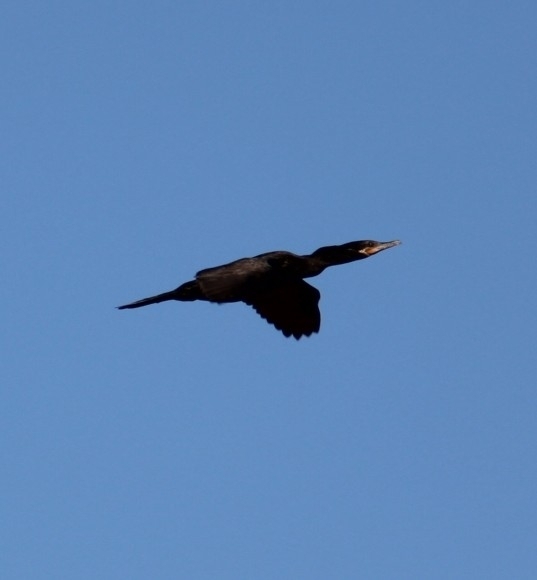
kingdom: Animalia
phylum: Chordata
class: Aves
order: Suliformes
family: Phalacrocoracidae
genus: Phalacrocorax
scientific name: Phalacrocorax brasilianus
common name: Neotropic cormorant
